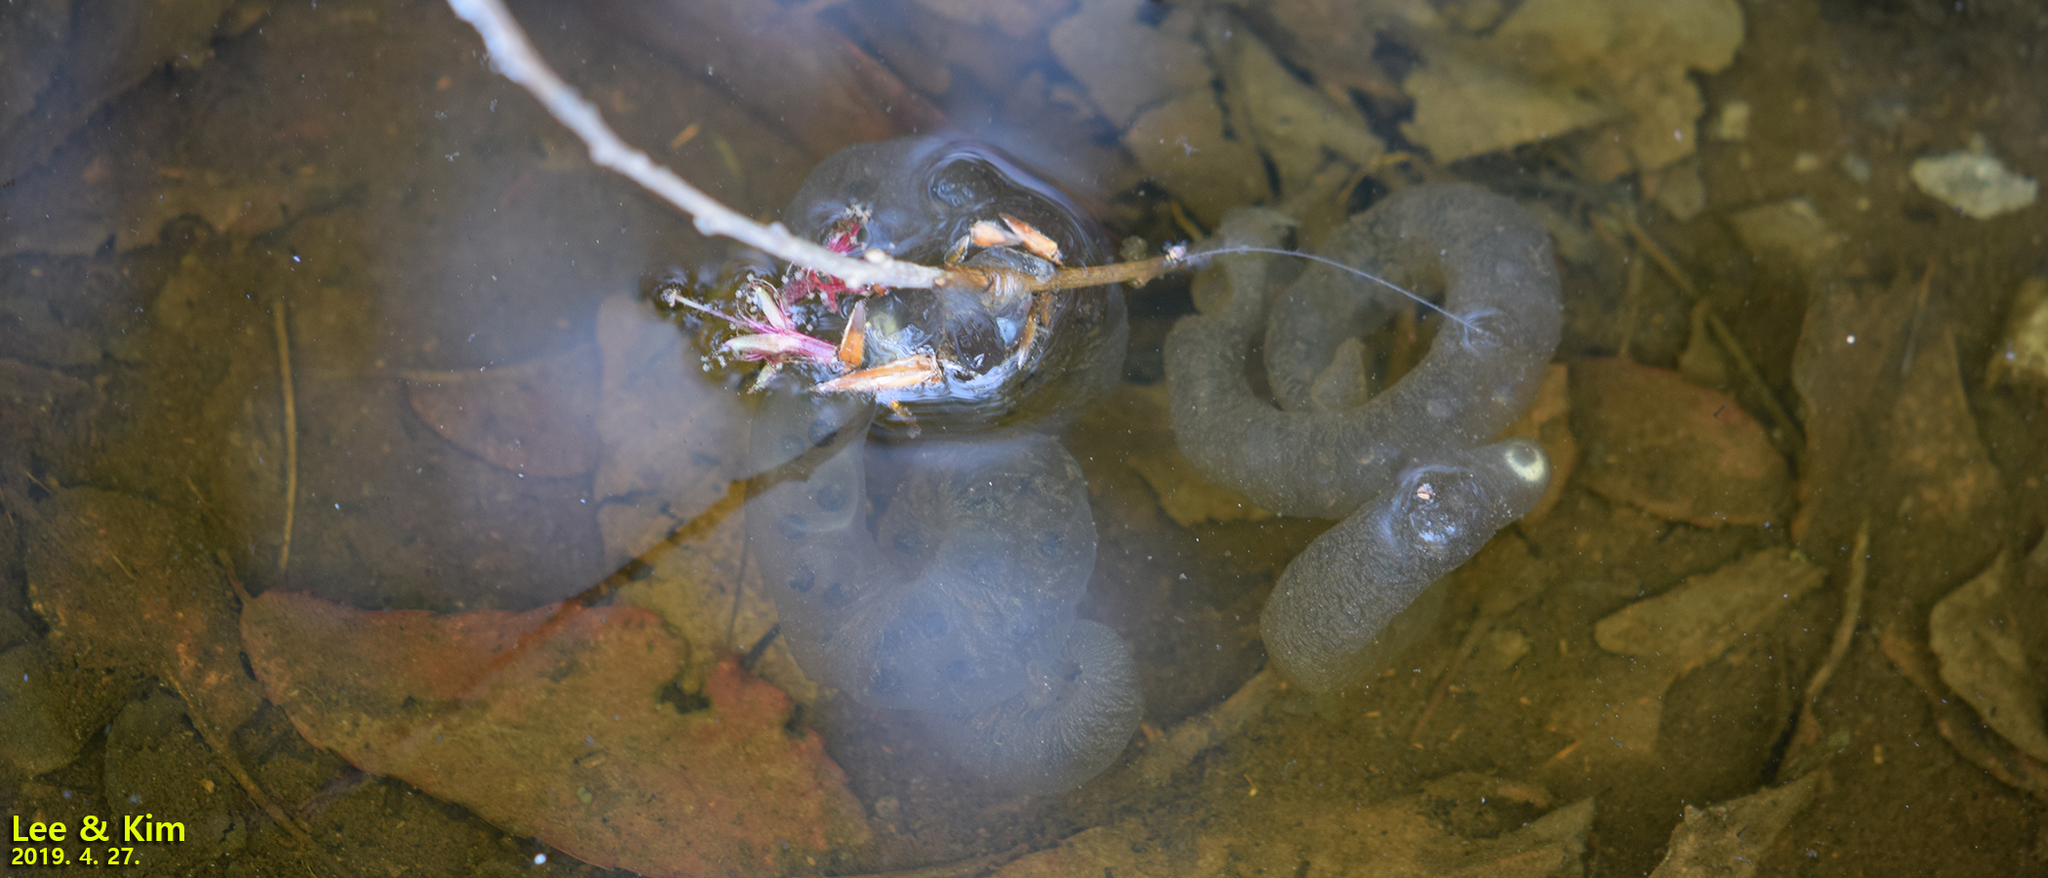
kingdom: Animalia
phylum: Chordata
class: Amphibia
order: Caudata
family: Hynobiidae
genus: Hynobius
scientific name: Hynobius leechii
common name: Gensan salamander
